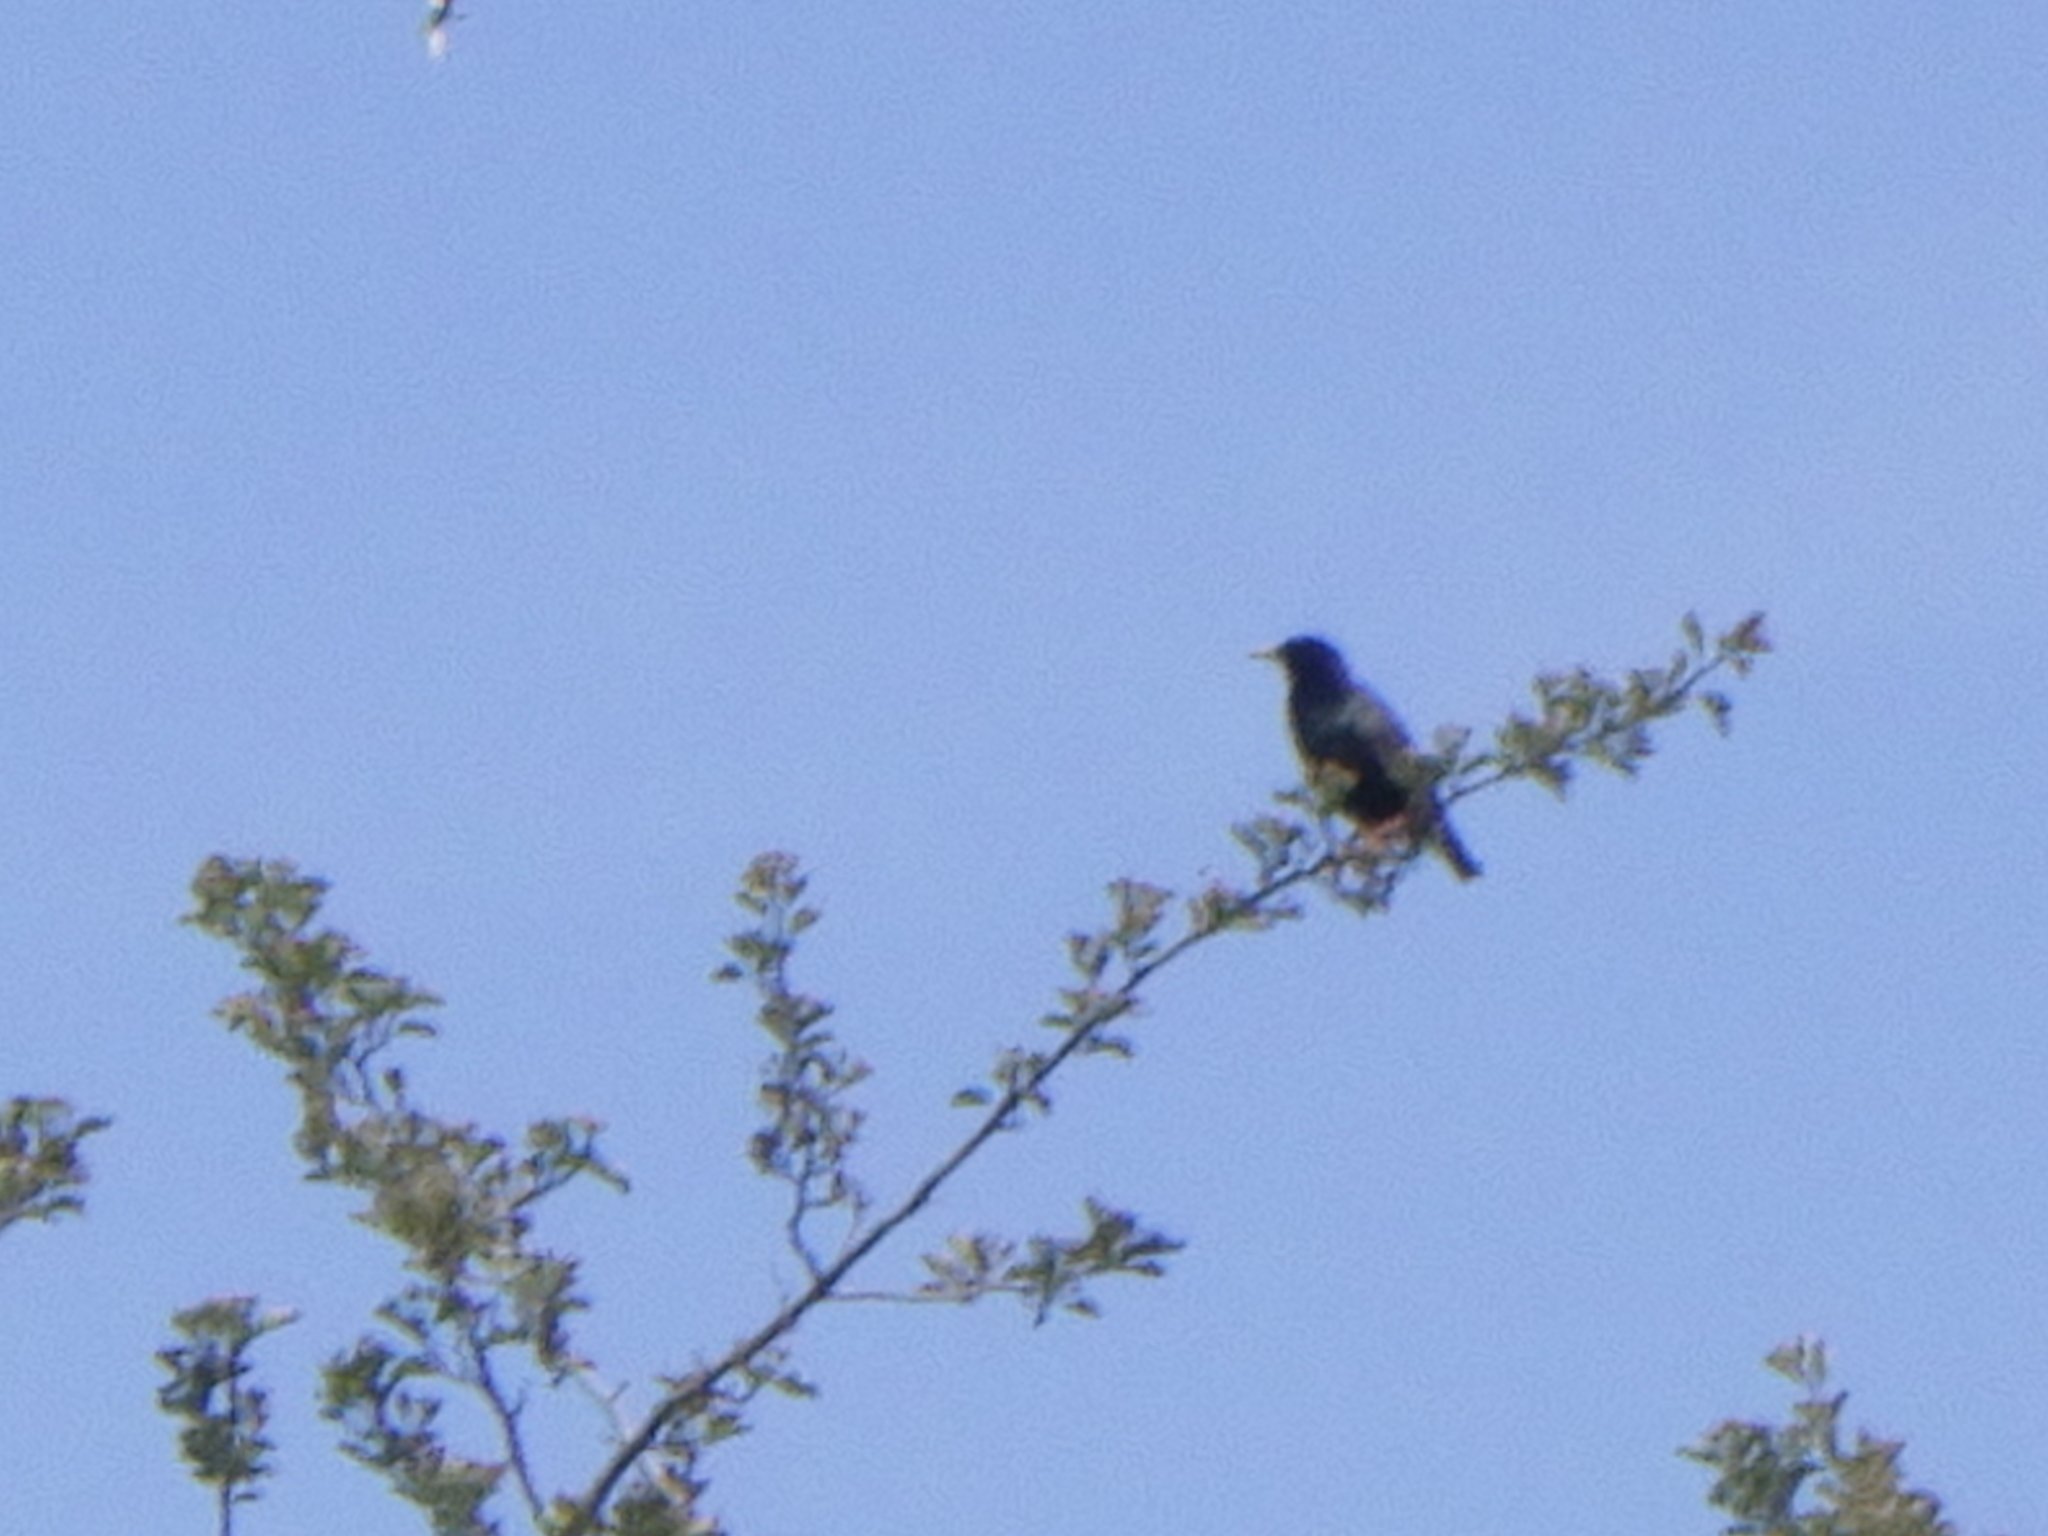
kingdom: Animalia
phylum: Chordata
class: Aves
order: Passeriformes
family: Sturnidae
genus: Sturnus
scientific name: Sturnus vulgaris
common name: Common starling
